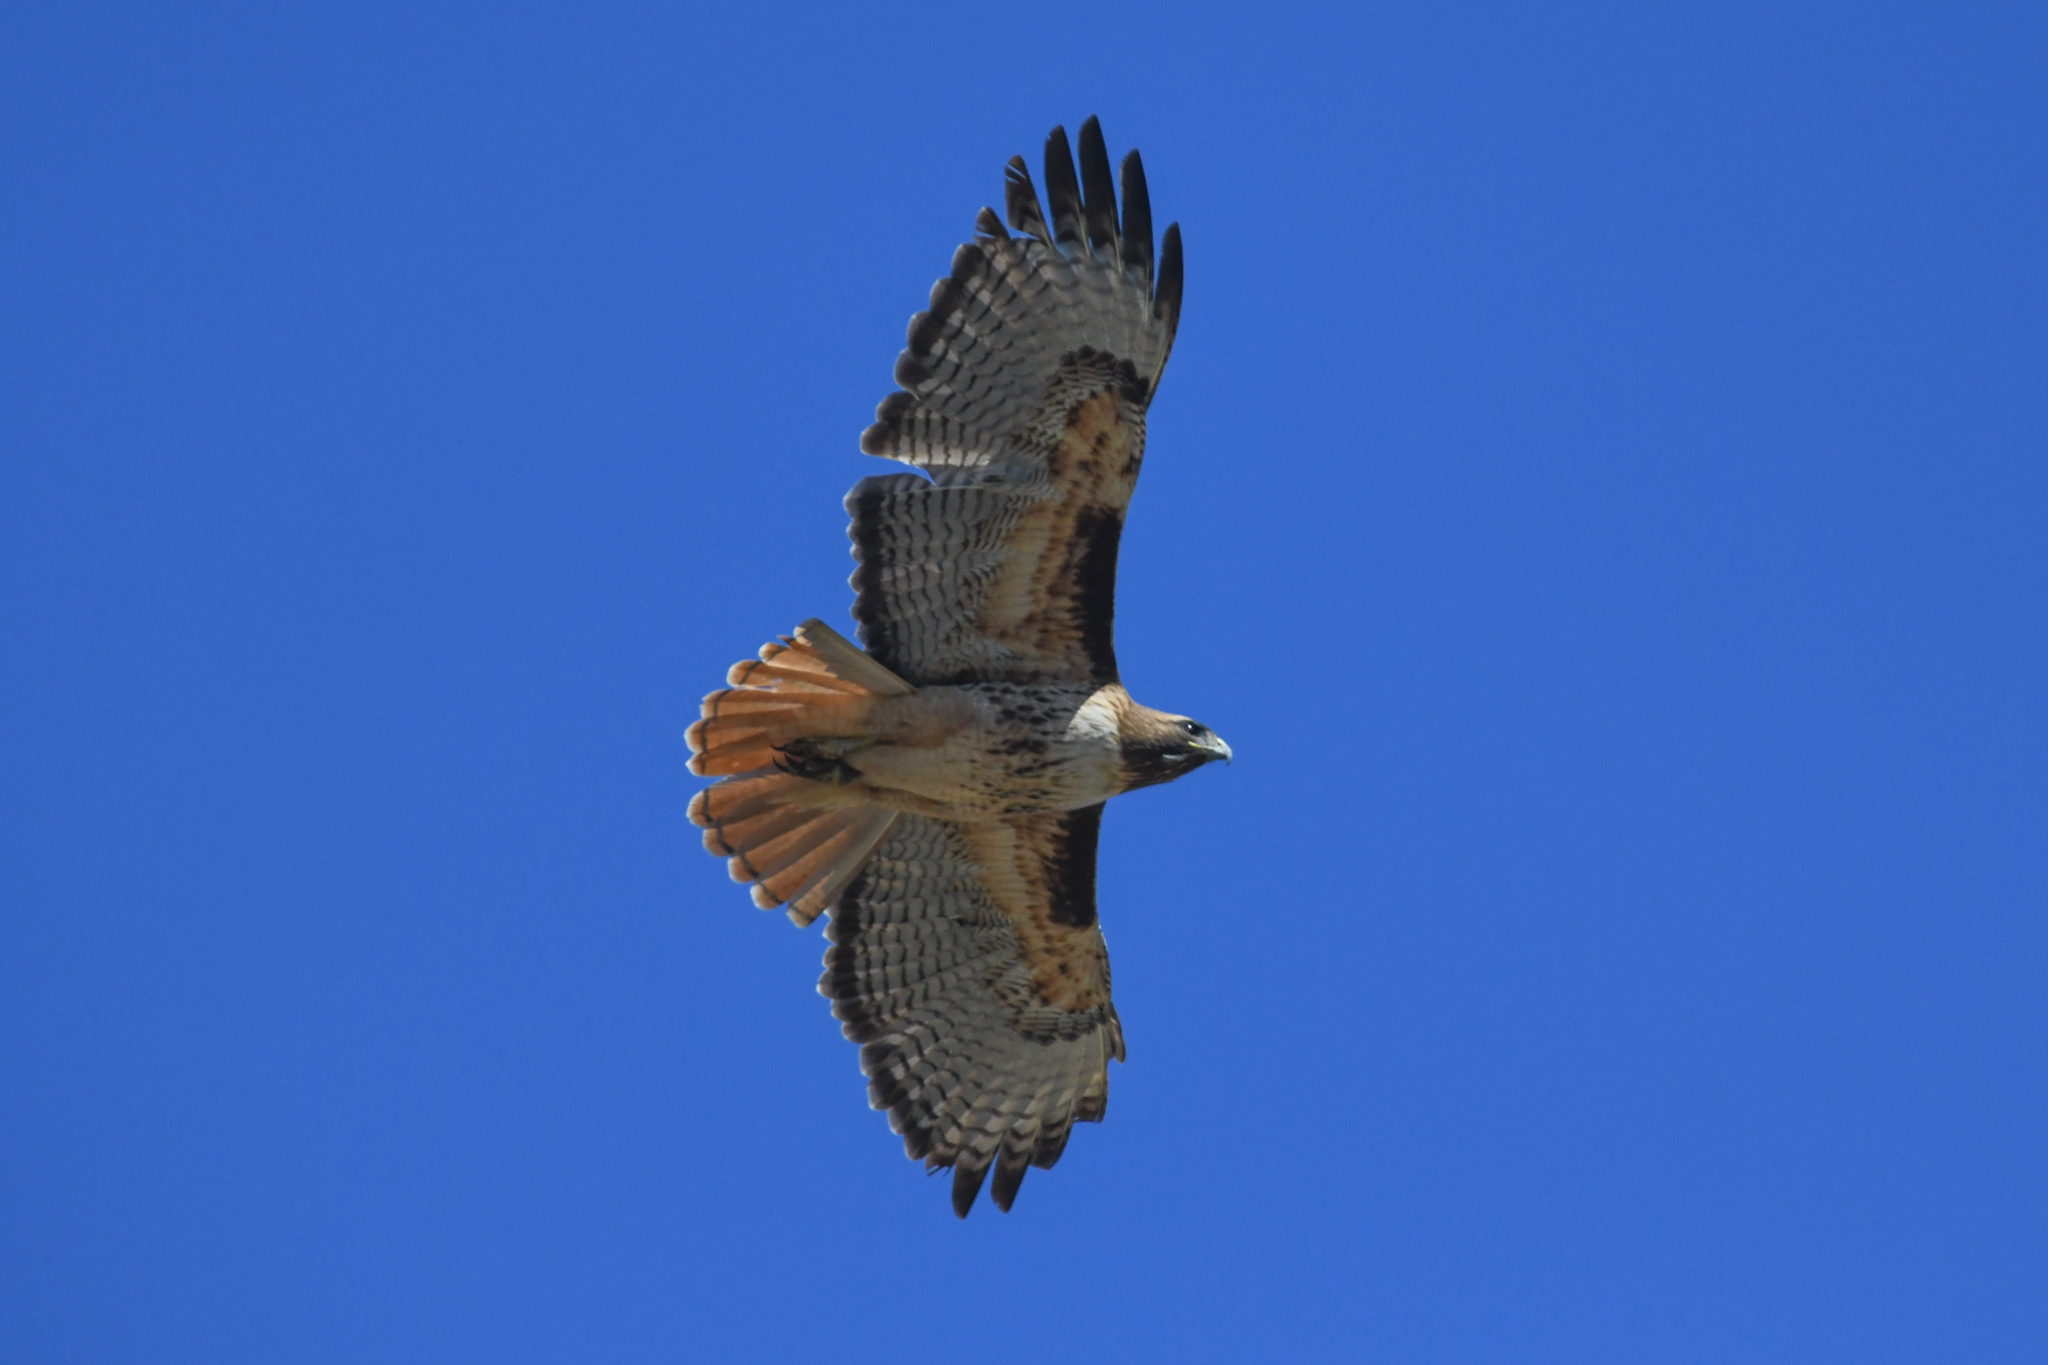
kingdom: Animalia
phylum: Chordata
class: Aves
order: Accipitriformes
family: Accipitridae
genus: Buteo
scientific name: Buteo jamaicensis
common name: Red-tailed hawk
